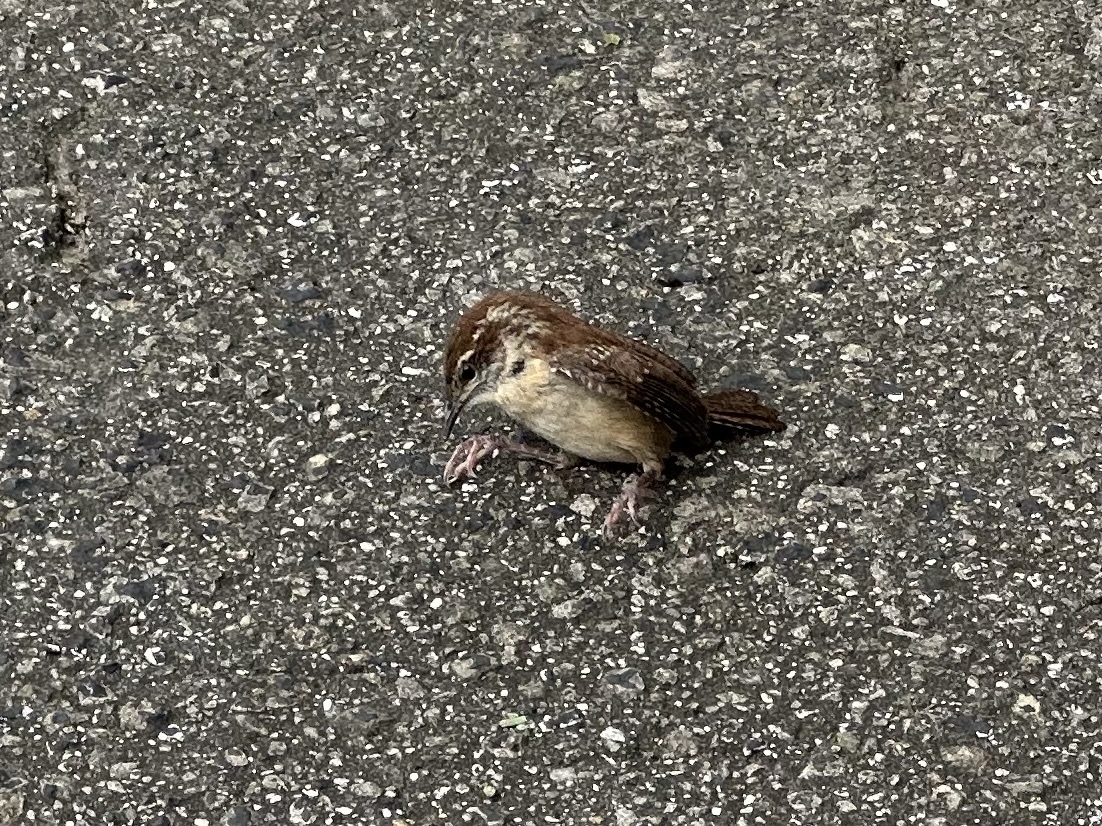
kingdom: Animalia
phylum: Chordata
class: Aves
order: Passeriformes
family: Troglodytidae
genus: Thryothorus
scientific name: Thryothorus ludovicianus
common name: Carolina wren
